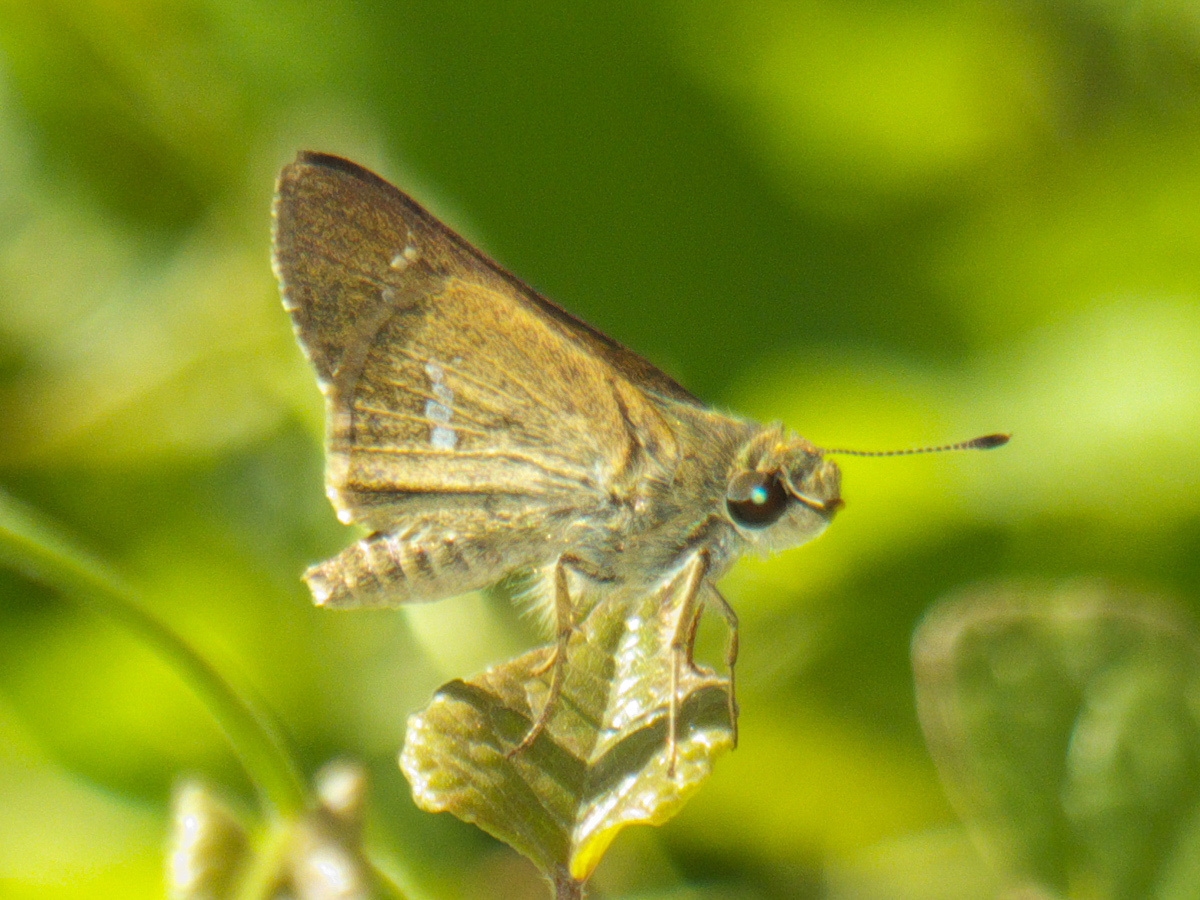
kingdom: Animalia
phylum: Arthropoda
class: Insecta
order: Lepidoptera
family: Hesperiidae
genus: Parnara
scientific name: Parnara ganga
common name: Continental swift
